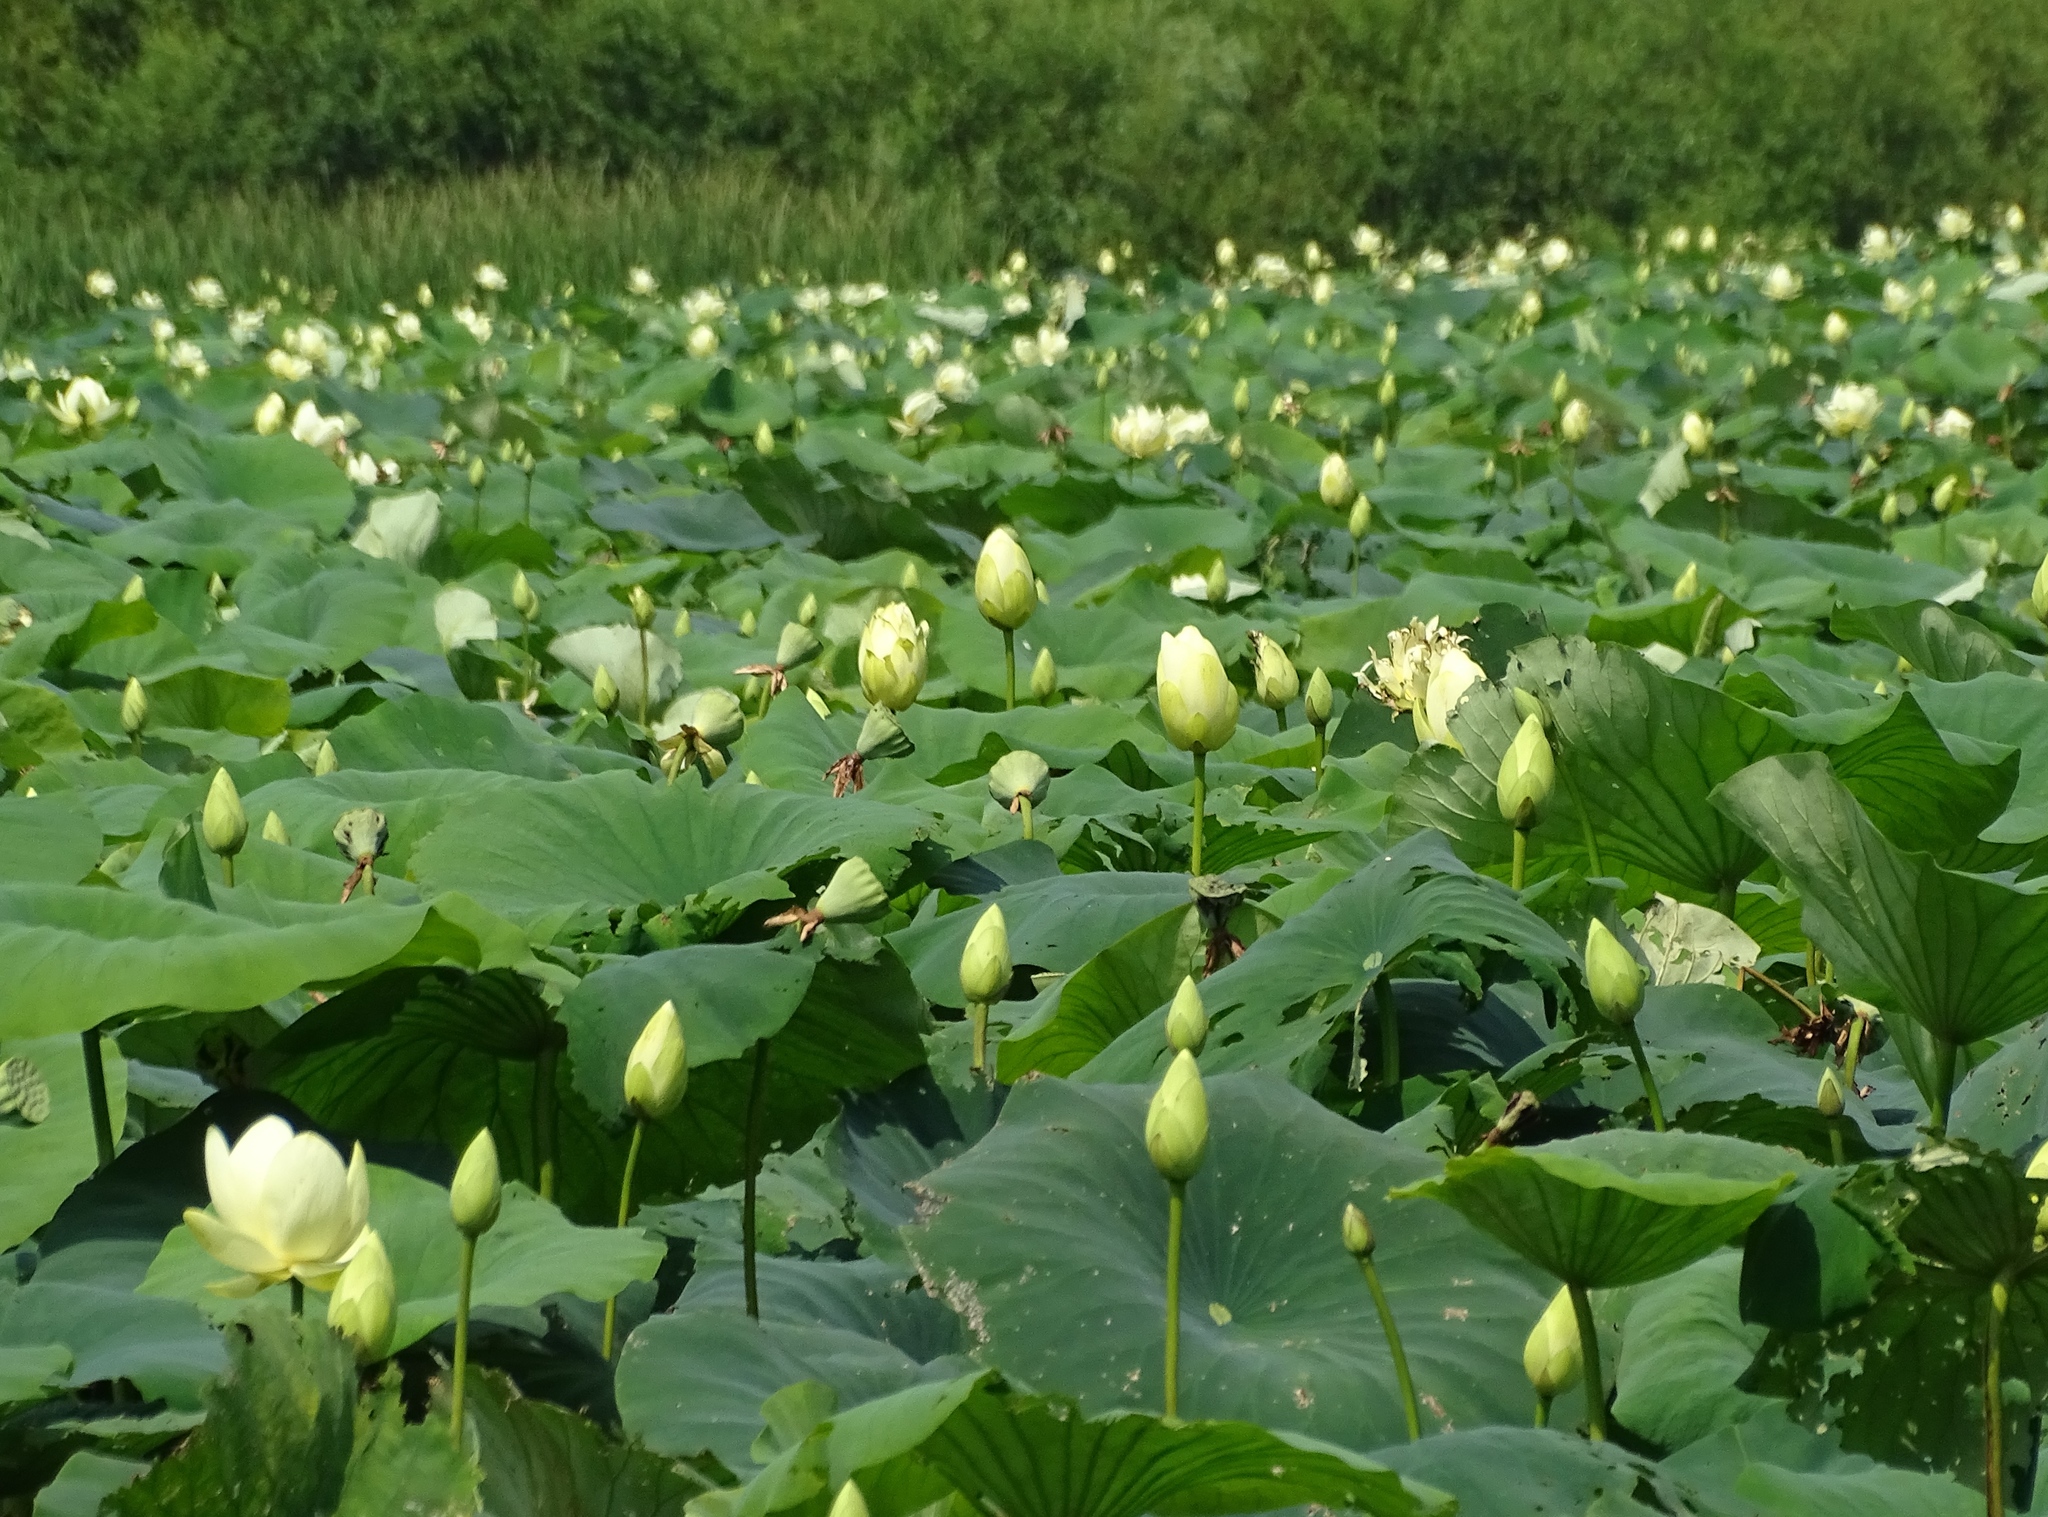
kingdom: Plantae
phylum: Tracheophyta
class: Magnoliopsida
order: Proteales
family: Nelumbonaceae
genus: Nelumbo
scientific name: Nelumbo lutea
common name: American lotus
